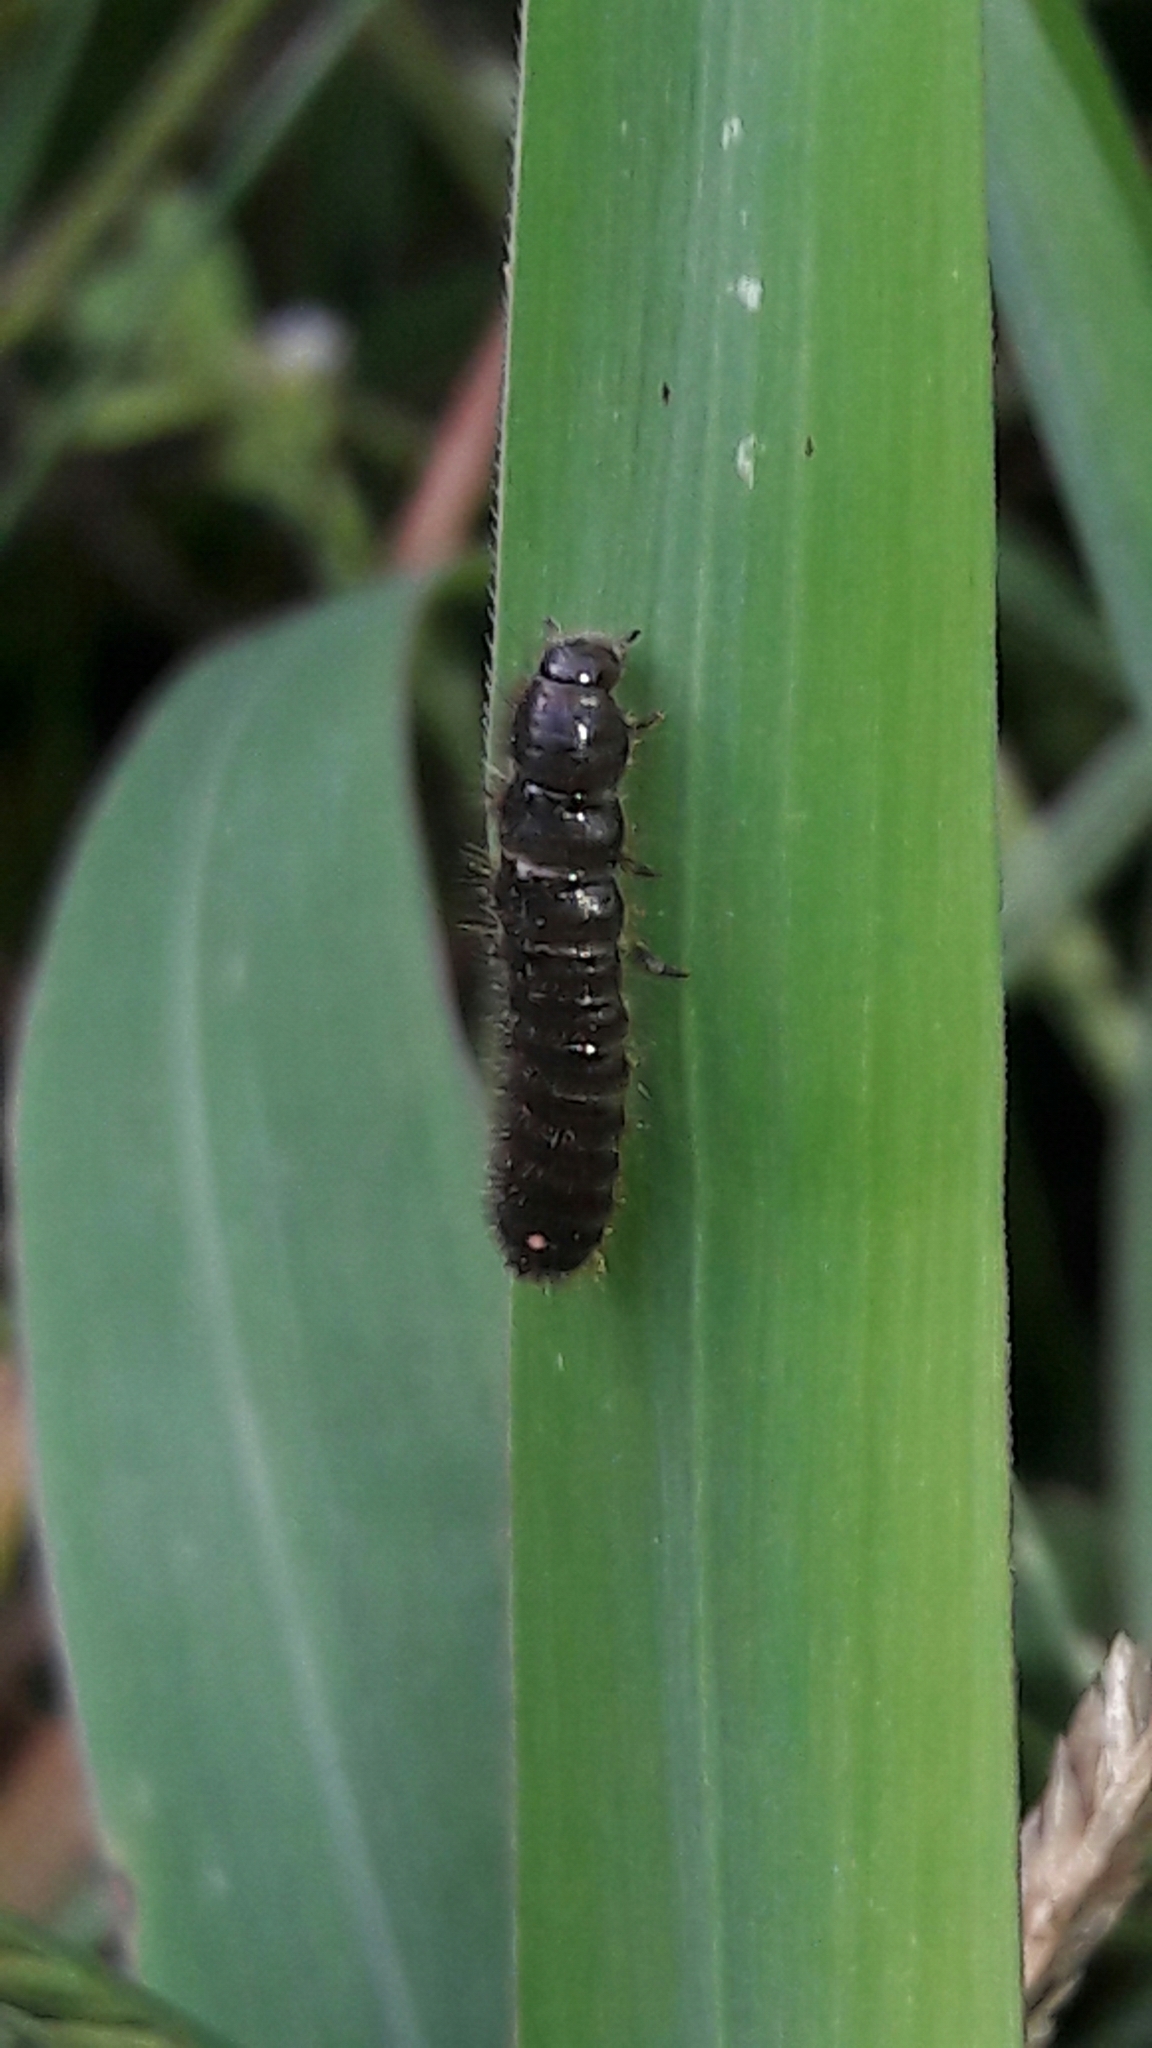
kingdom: Animalia
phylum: Arthropoda
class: Insecta
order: Coleoptera
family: Tenebrionidae
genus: Lagria
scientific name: Lagria villosa
